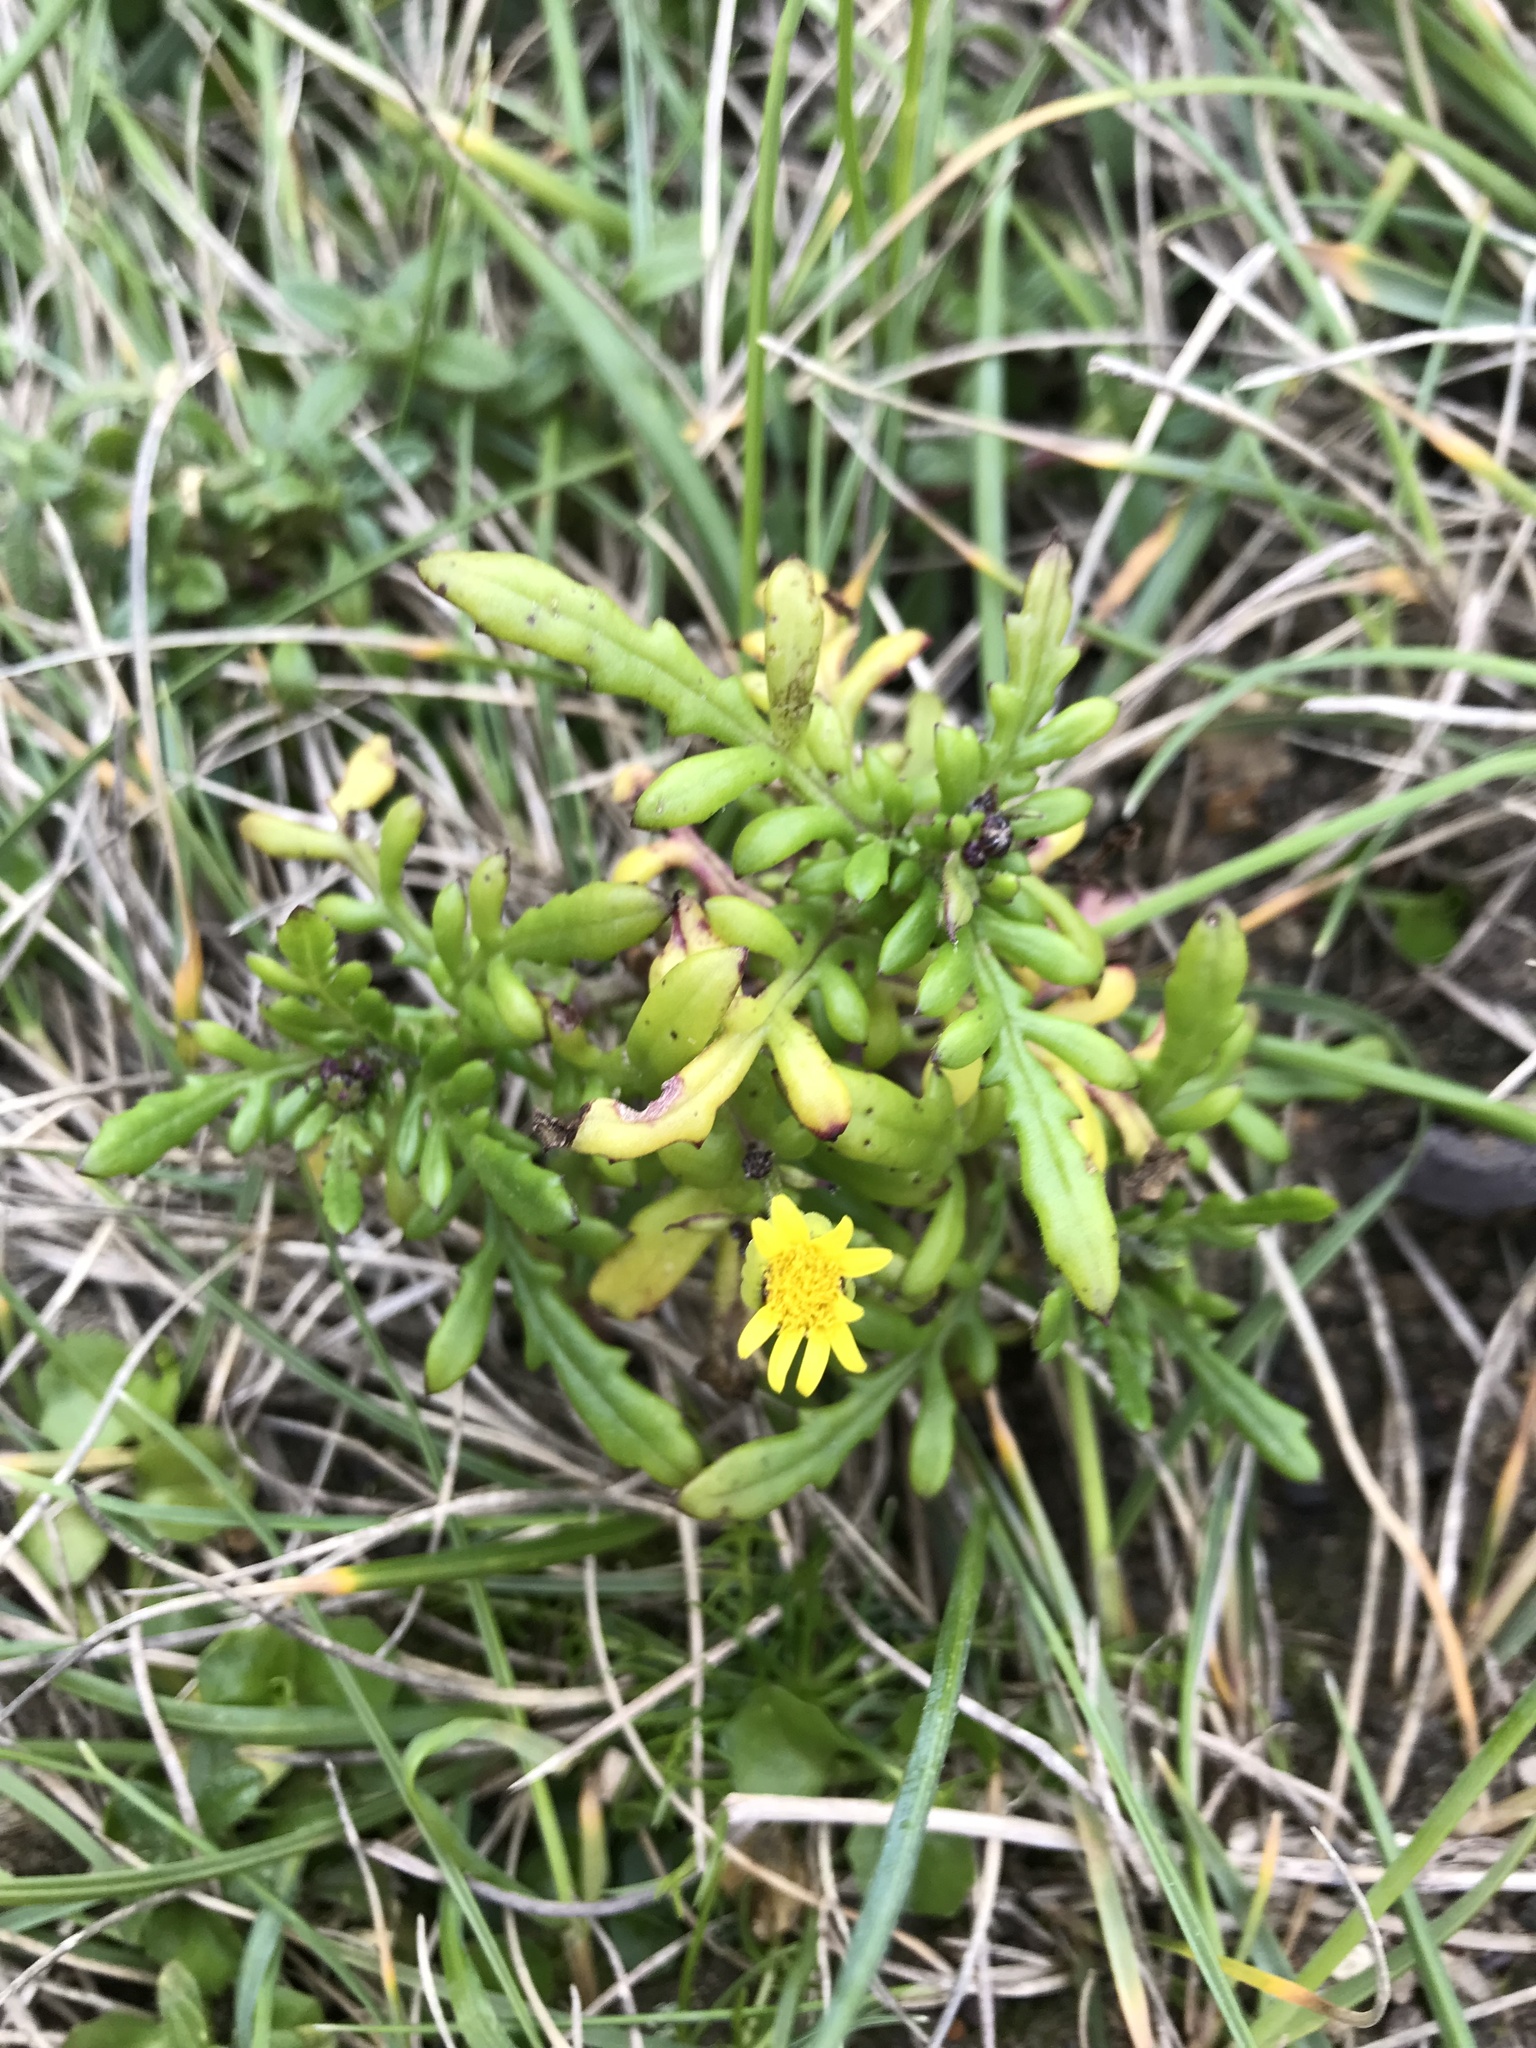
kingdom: Plantae
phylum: Tracheophyta
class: Magnoliopsida
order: Asterales
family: Asteraceae
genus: Senecio
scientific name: Senecio lautus
